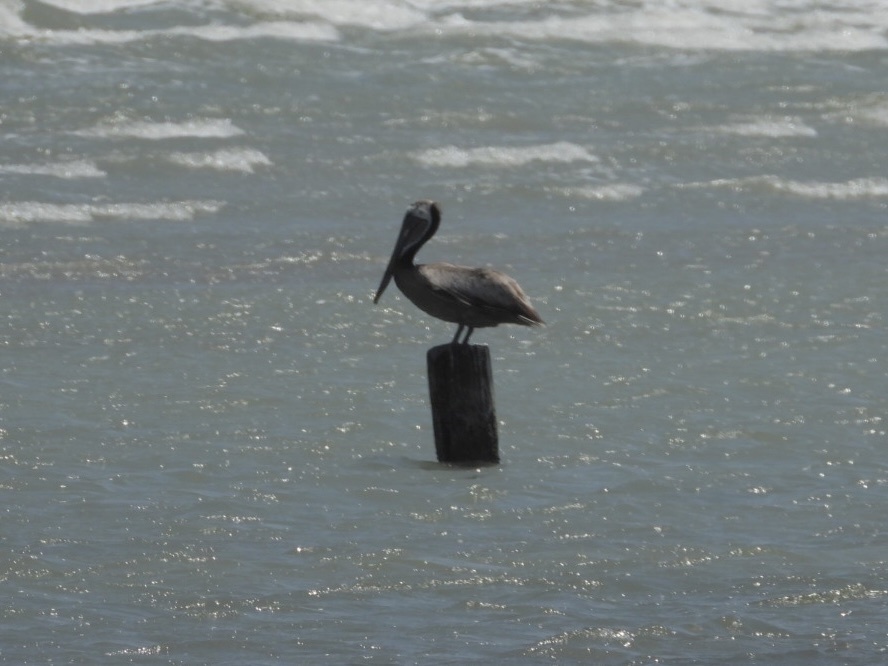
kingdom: Animalia
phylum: Chordata
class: Aves
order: Pelecaniformes
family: Pelecanidae
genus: Pelecanus
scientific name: Pelecanus occidentalis
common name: Brown pelican
